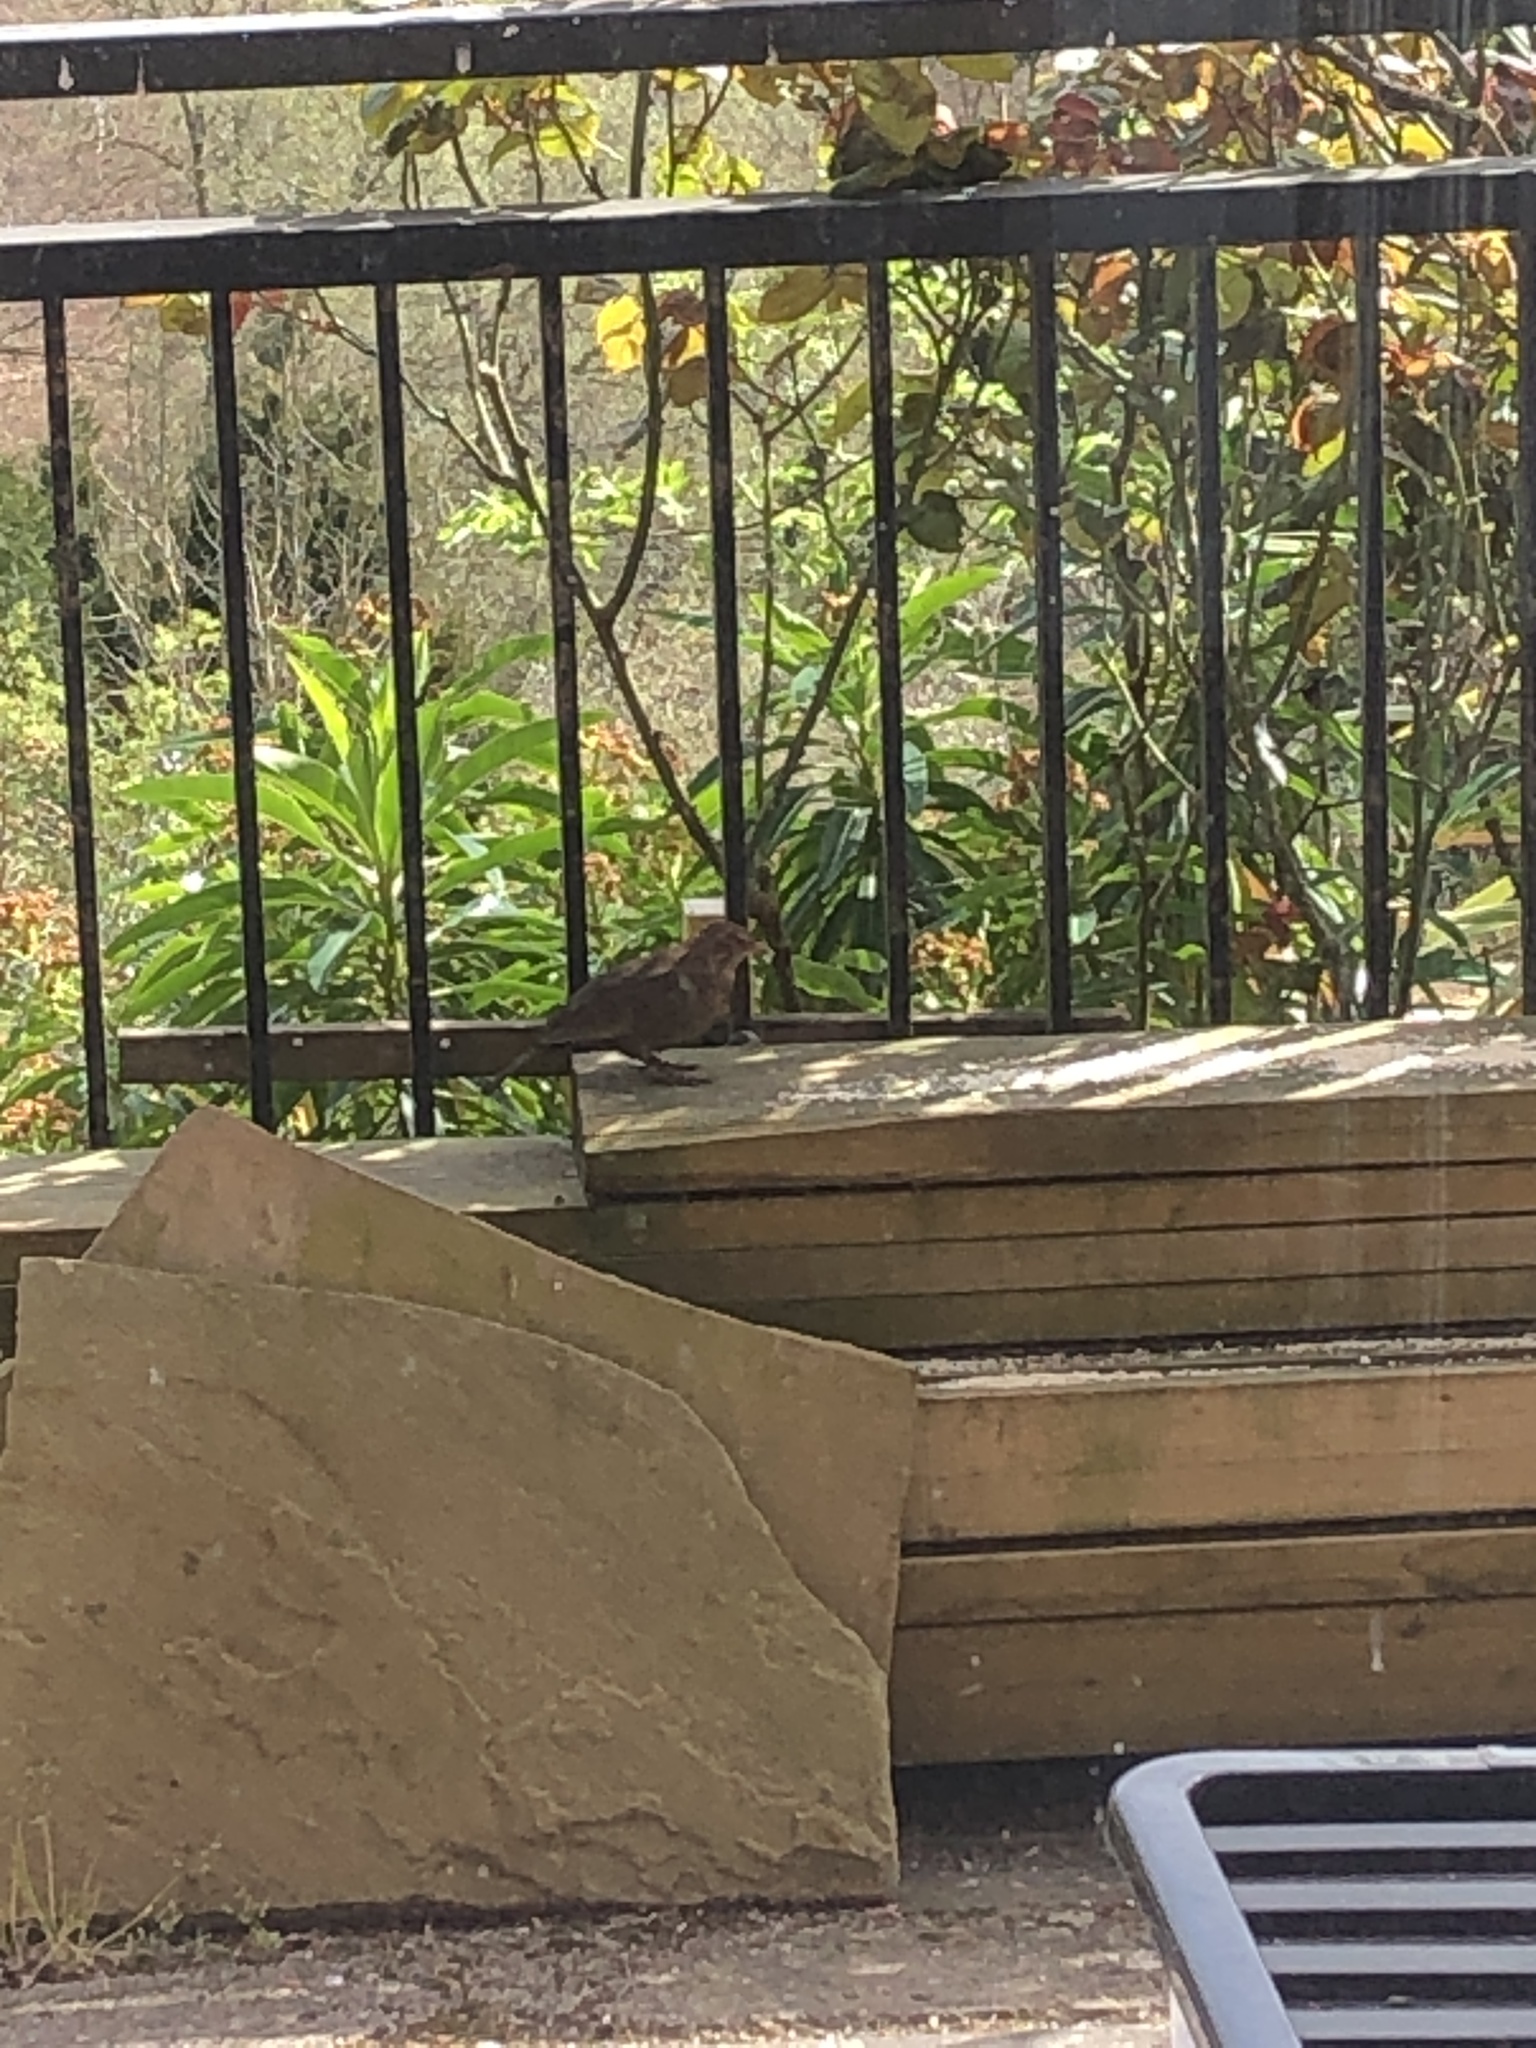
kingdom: Animalia
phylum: Chordata
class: Aves
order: Passeriformes
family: Turdidae
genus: Turdus
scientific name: Turdus merula
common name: Common blackbird
